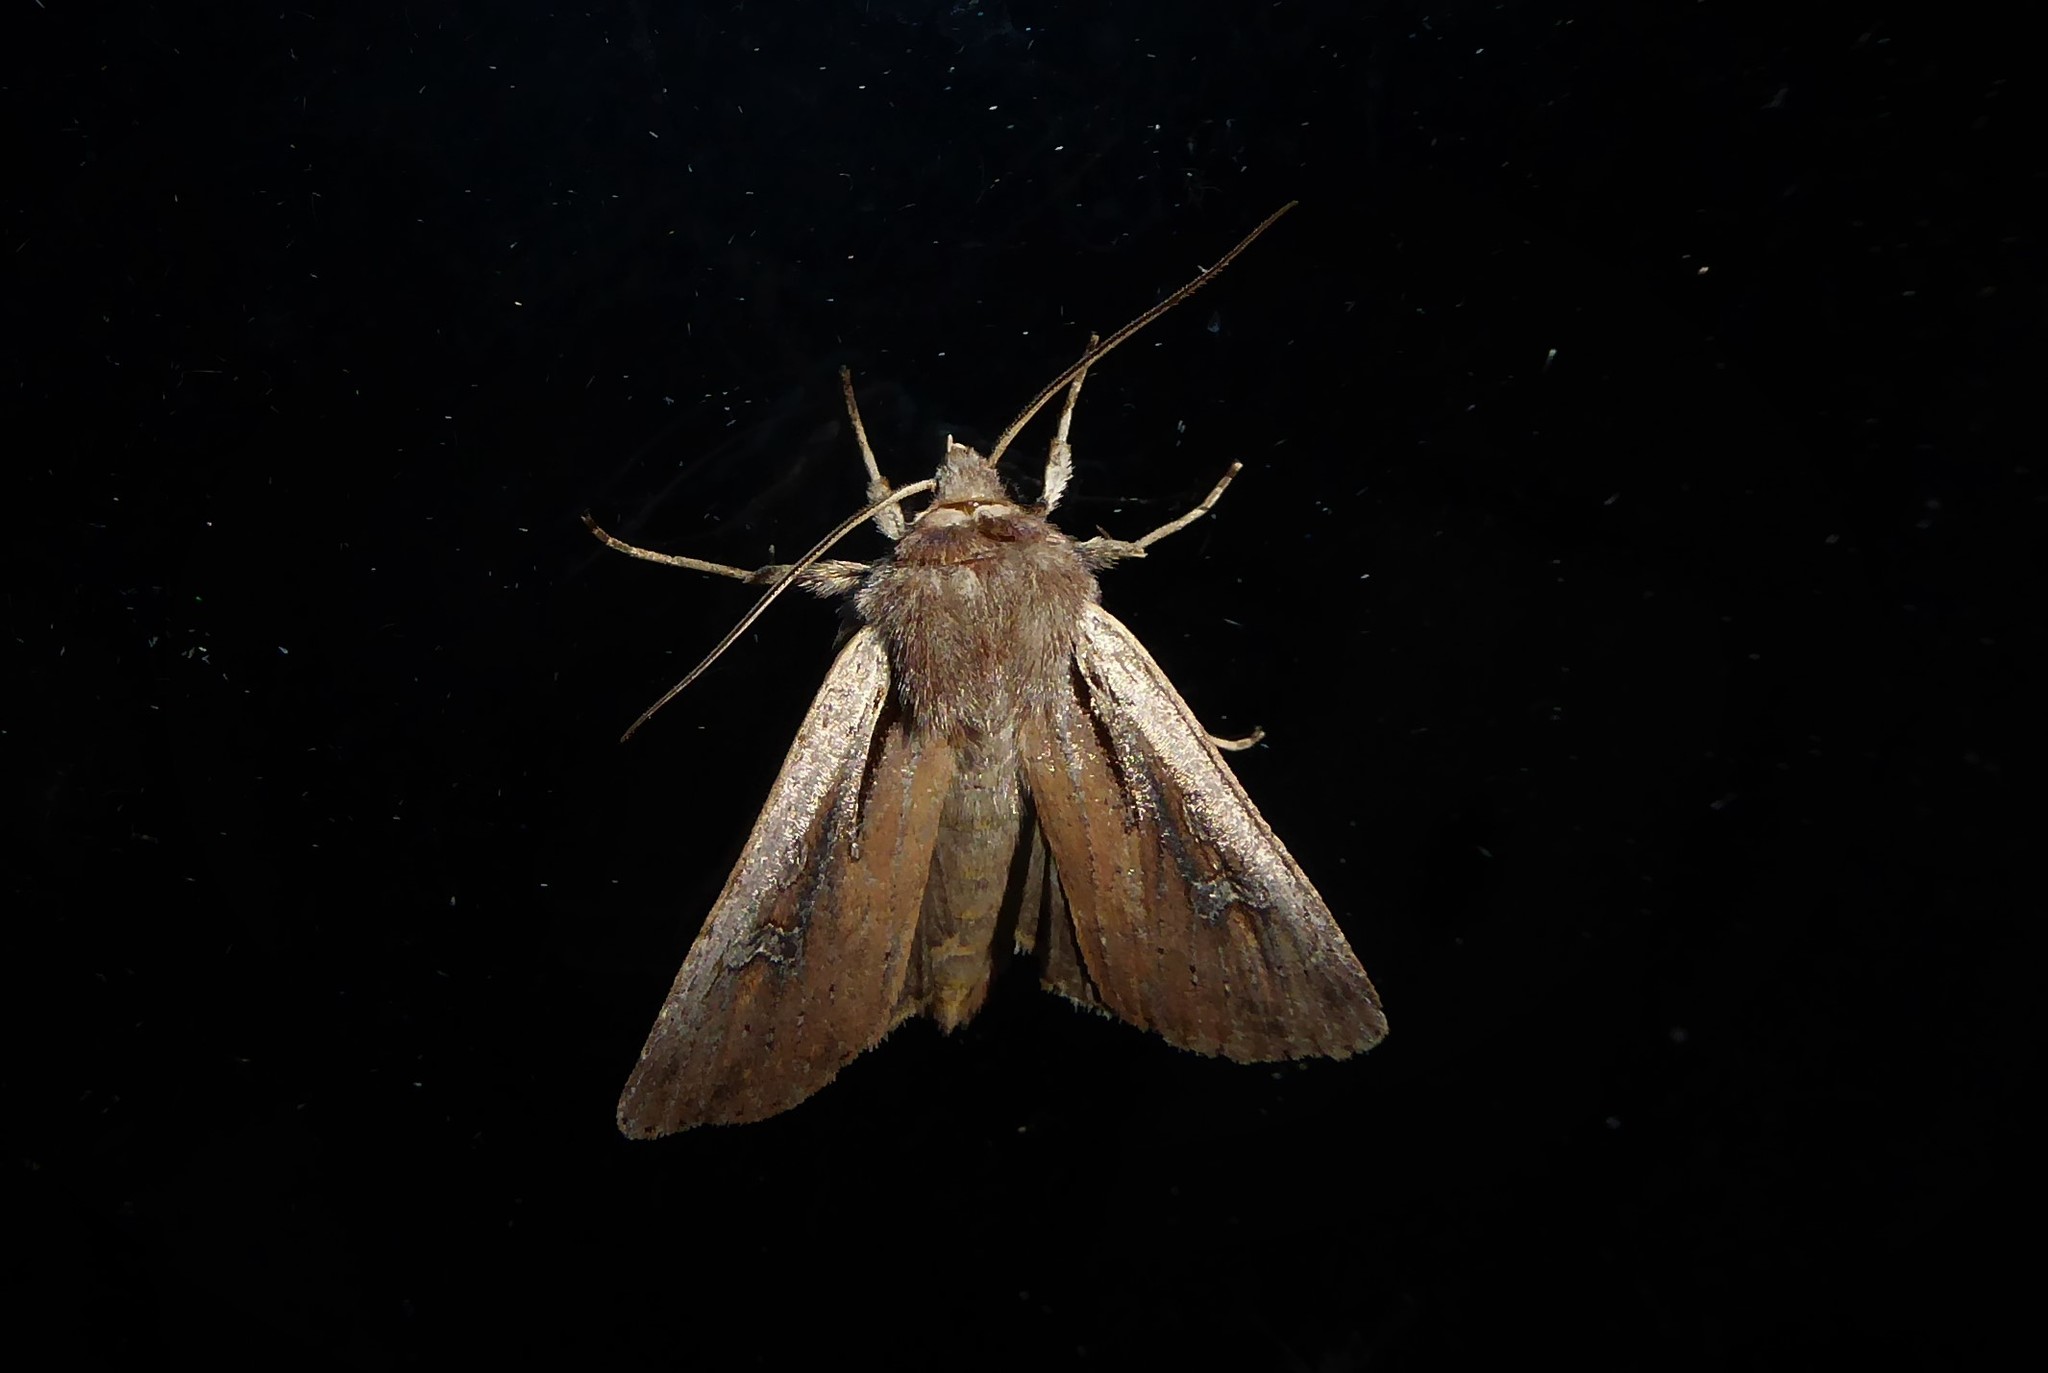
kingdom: Animalia
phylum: Arthropoda
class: Insecta
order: Lepidoptera
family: Noctuidae
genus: Ichneutica
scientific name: Ichneutica atristriga
